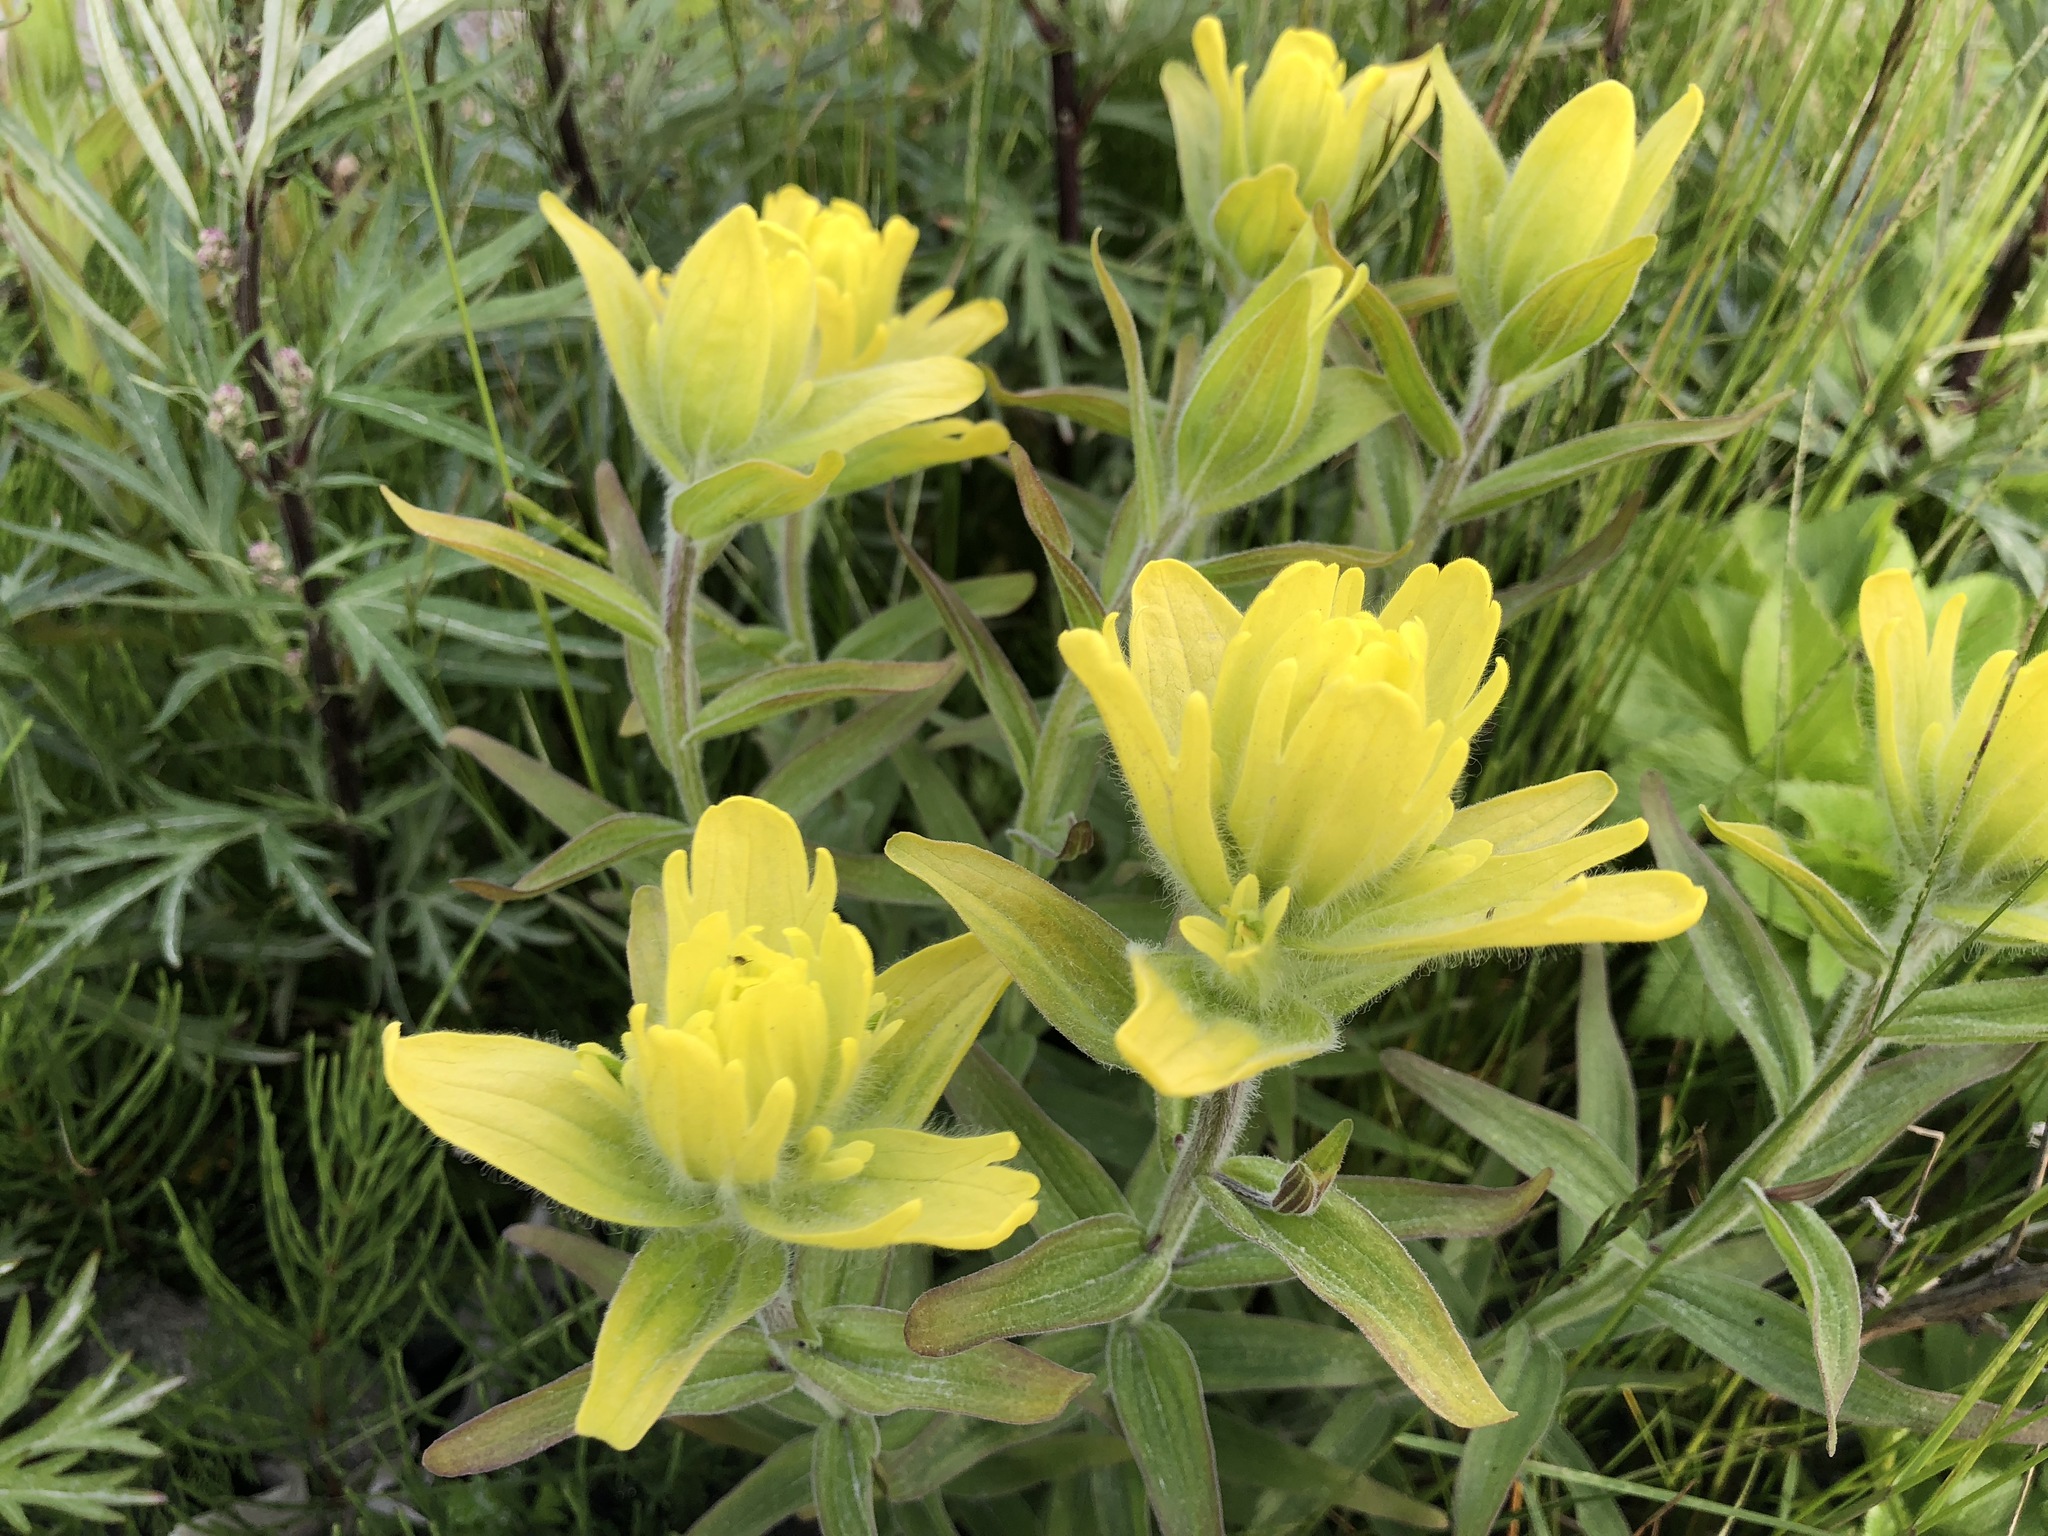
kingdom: Plantae
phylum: Tracheophyta
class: Magnoliopsida
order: Lamiales
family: Orobanchaceae
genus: Castilleja
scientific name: Castilleja unalaschcensis
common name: Unalaska paintbrush
